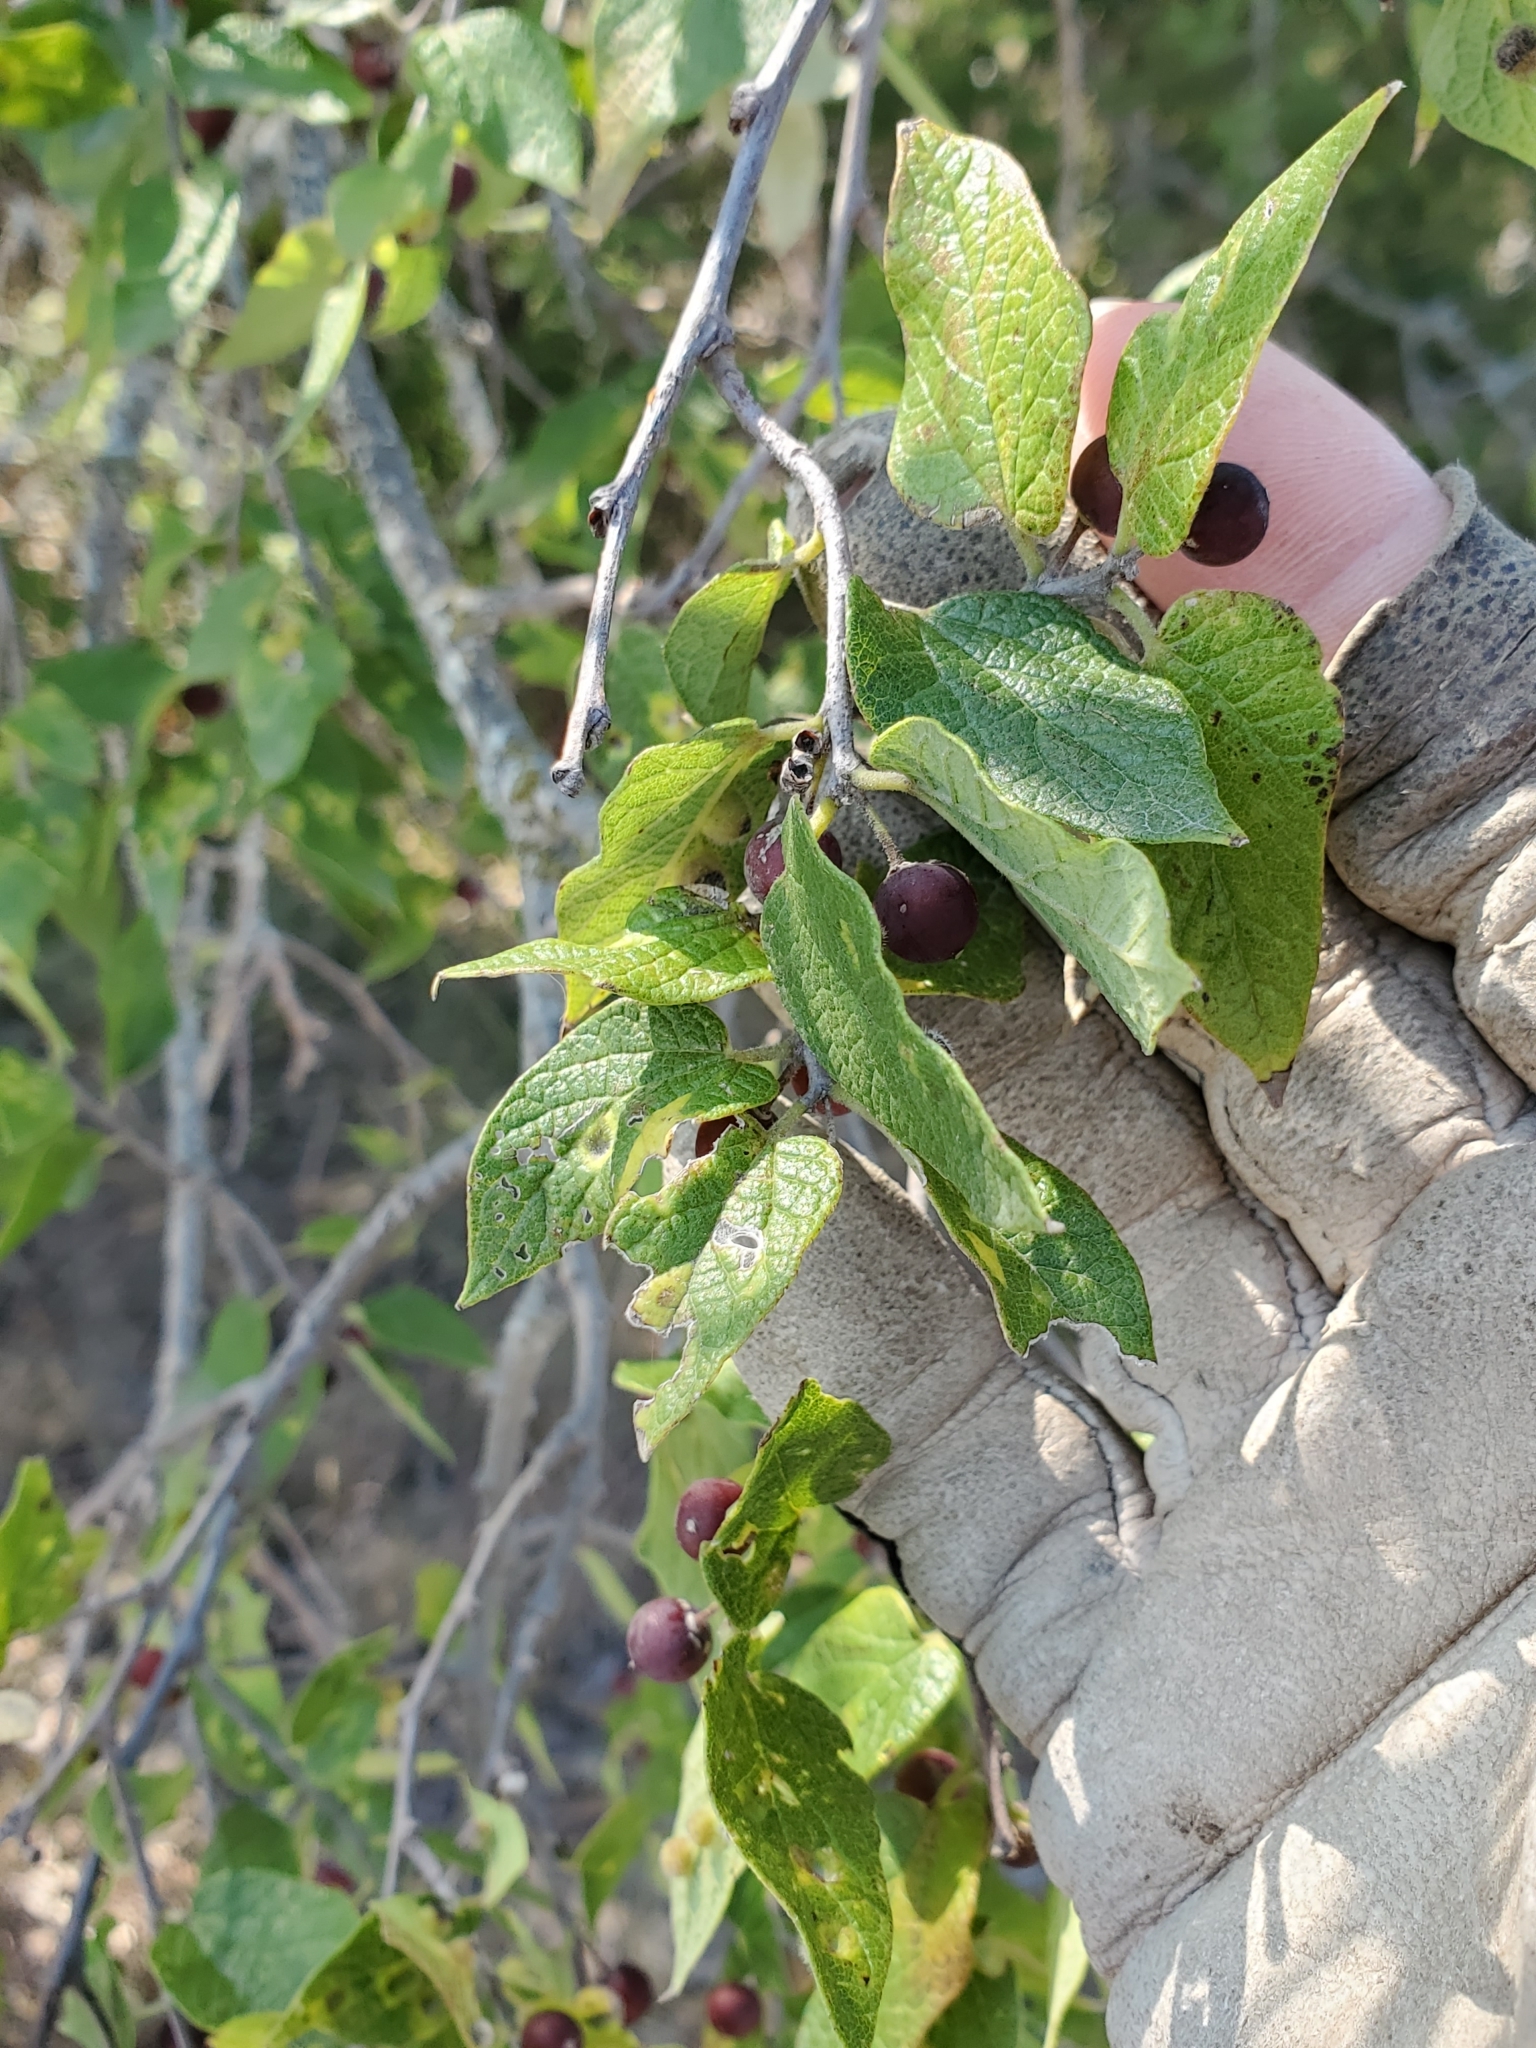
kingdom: Plantae
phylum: Tracheophyta
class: Magnoliopsida
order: Rosales
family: Cannabaceae
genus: Celtis
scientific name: Celtis reticulata
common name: Netleaf hackberry
